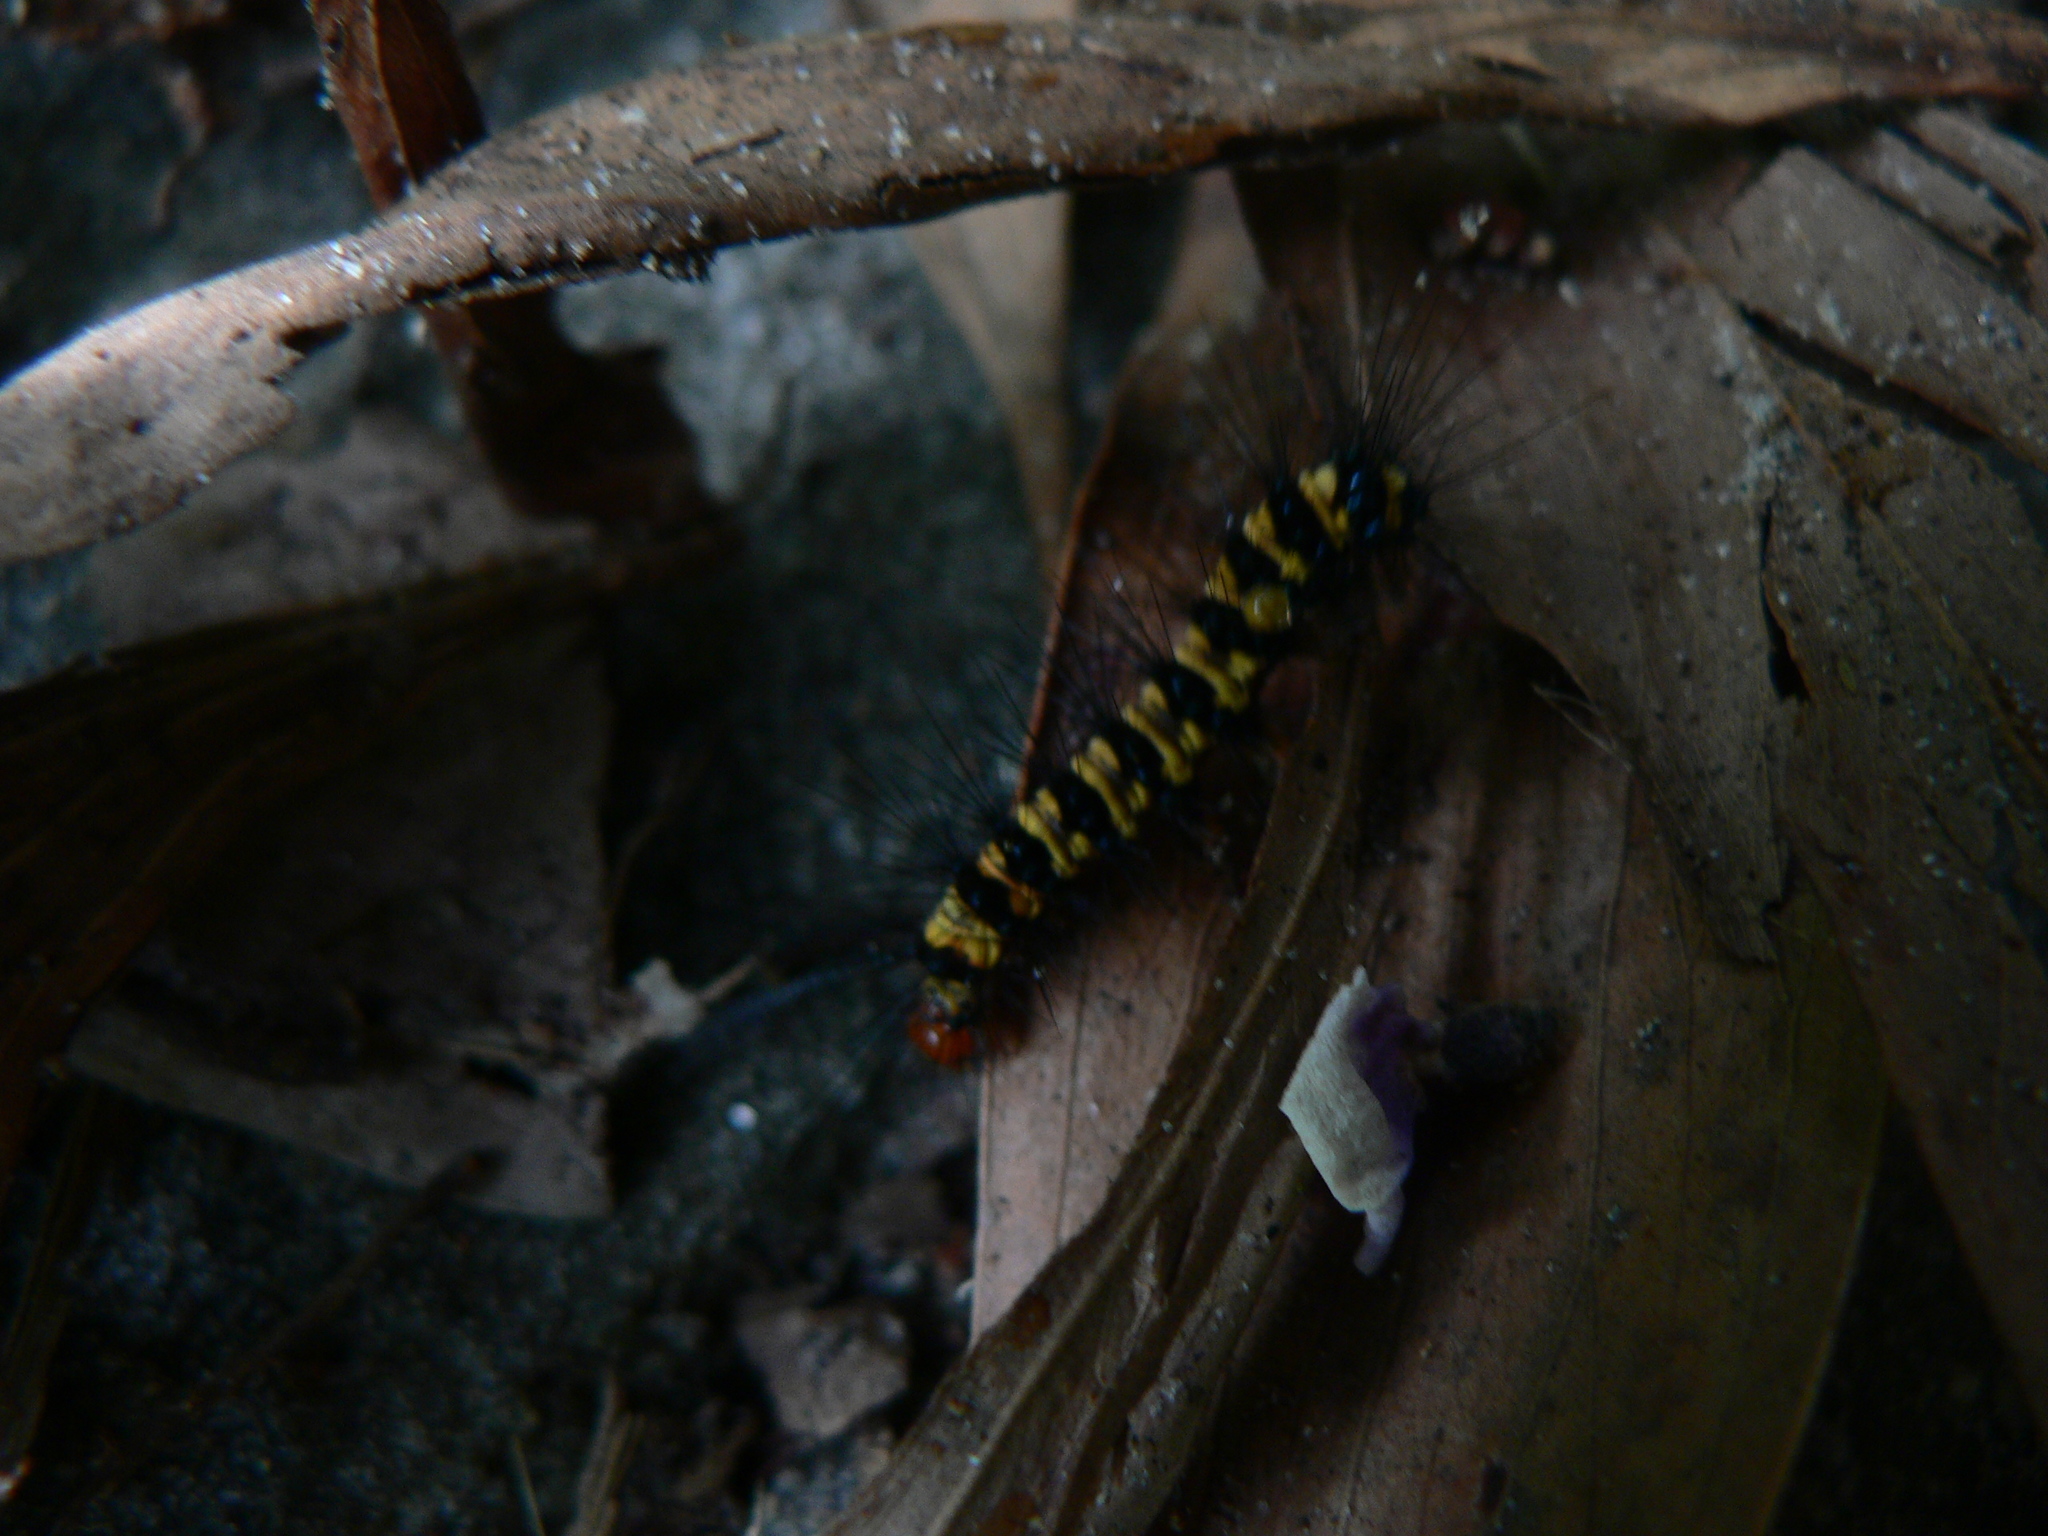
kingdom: Animalia
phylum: Arthropoda
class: Insecta
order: Lepidoptera
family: Erebidae
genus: Nyctemera
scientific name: Nyctemera baulus
